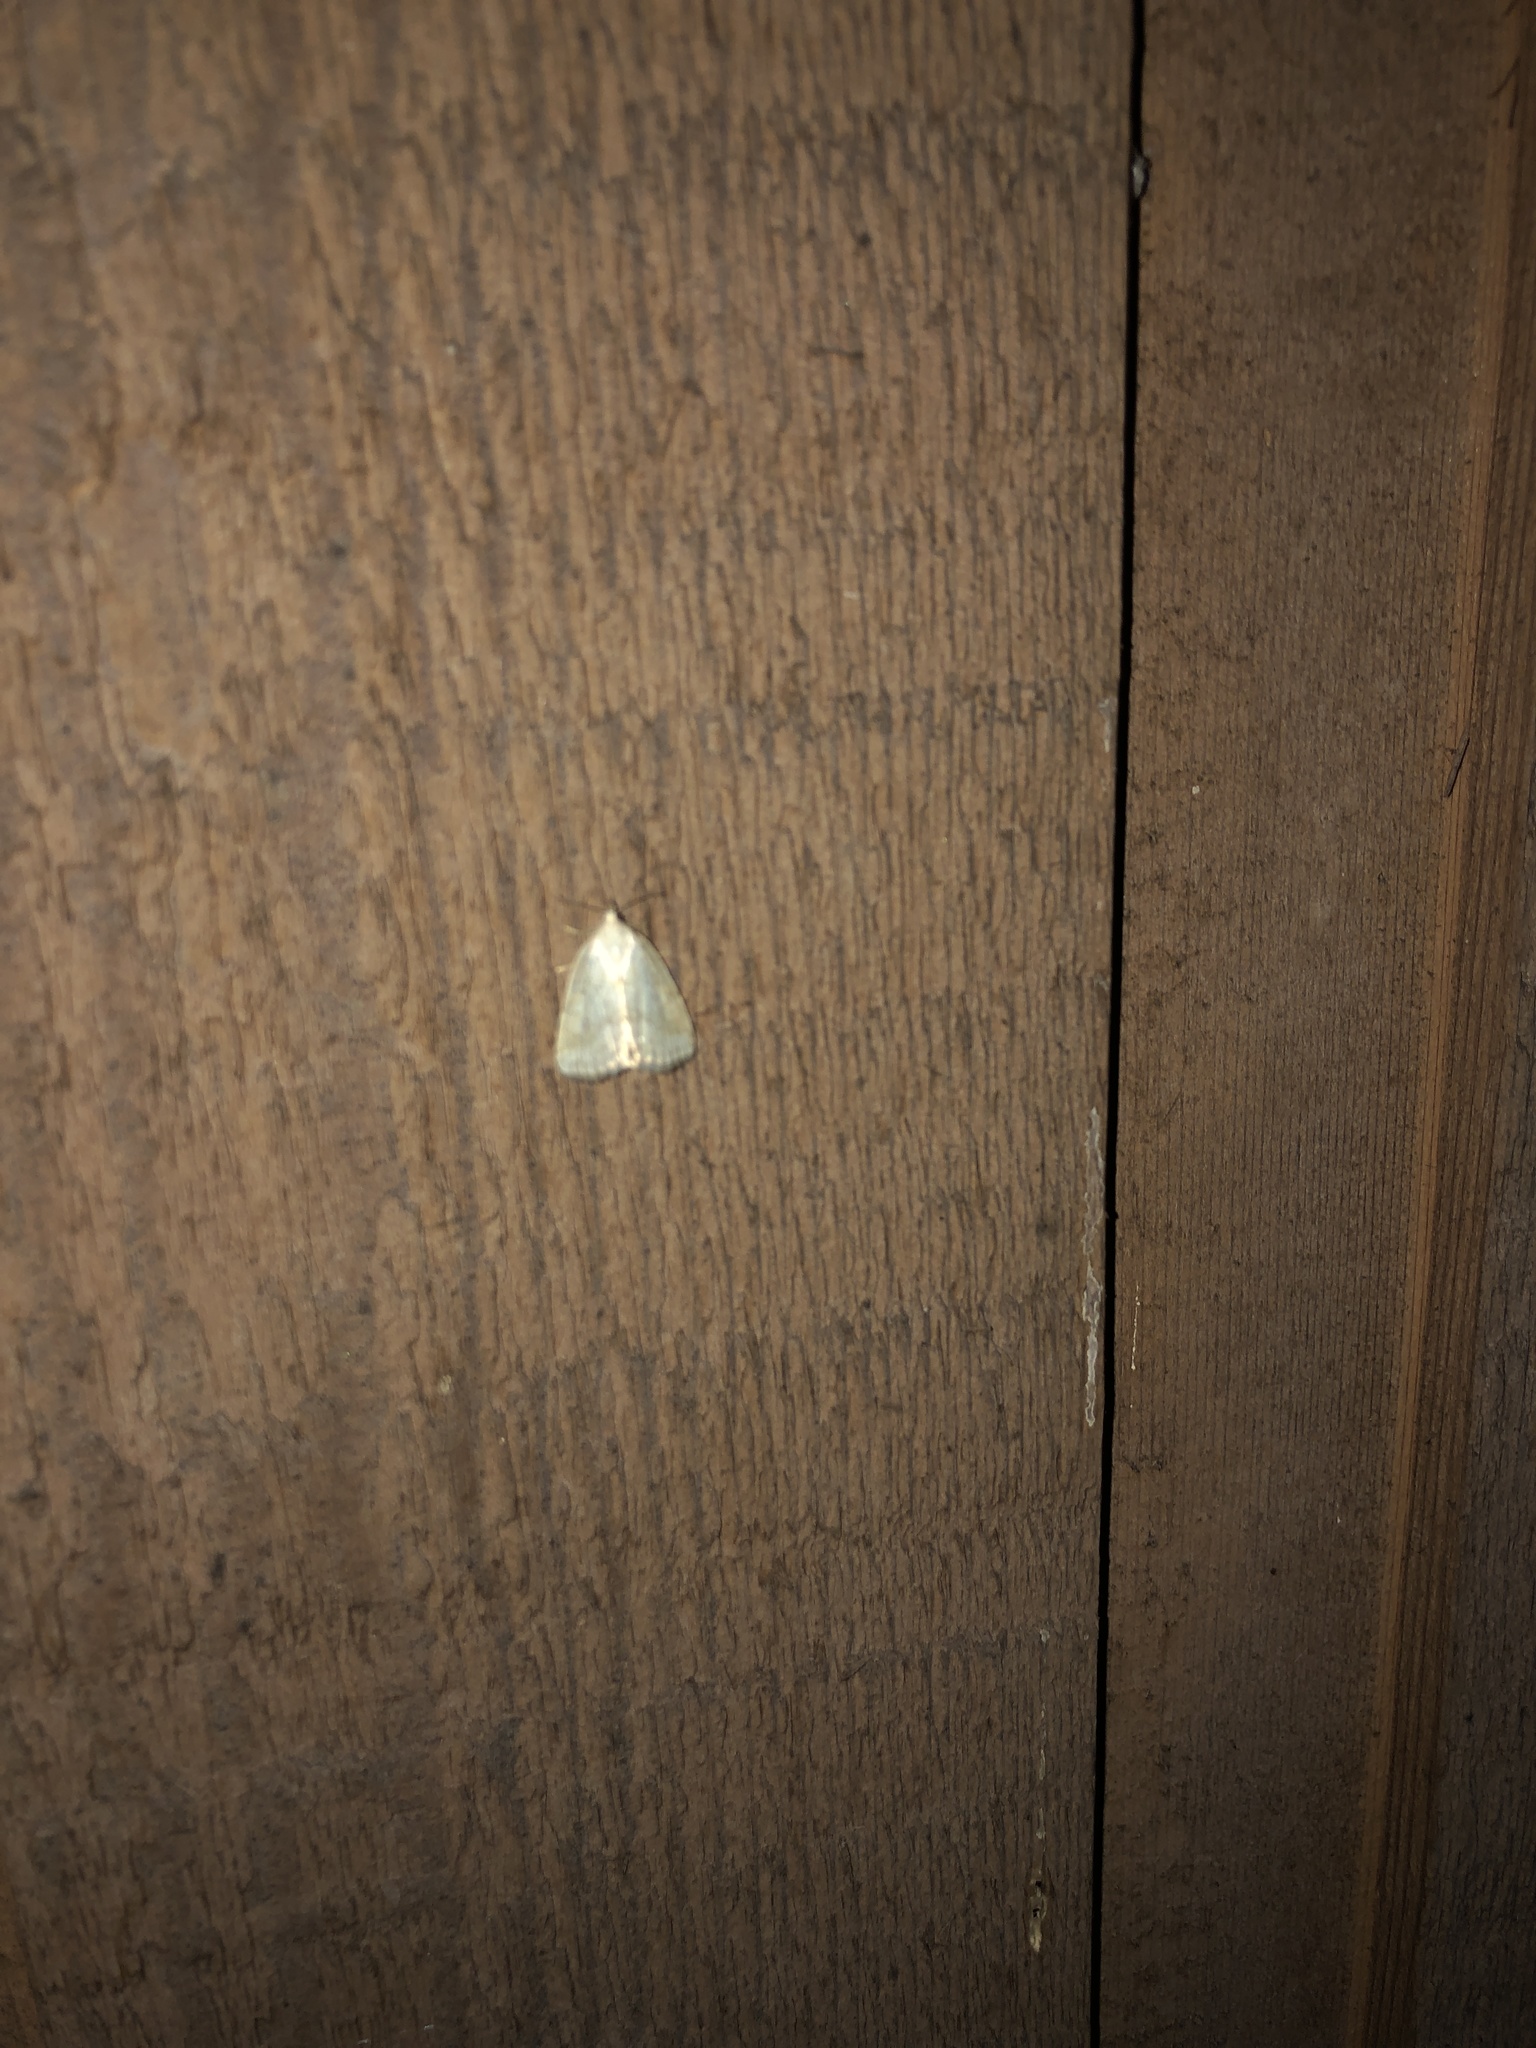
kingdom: Animalia
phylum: Arthropoda
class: Insecta
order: Lepidoptera
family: Noctuidae
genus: Protodeltote
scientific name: Protodeltote albidula
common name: Pale glyph
